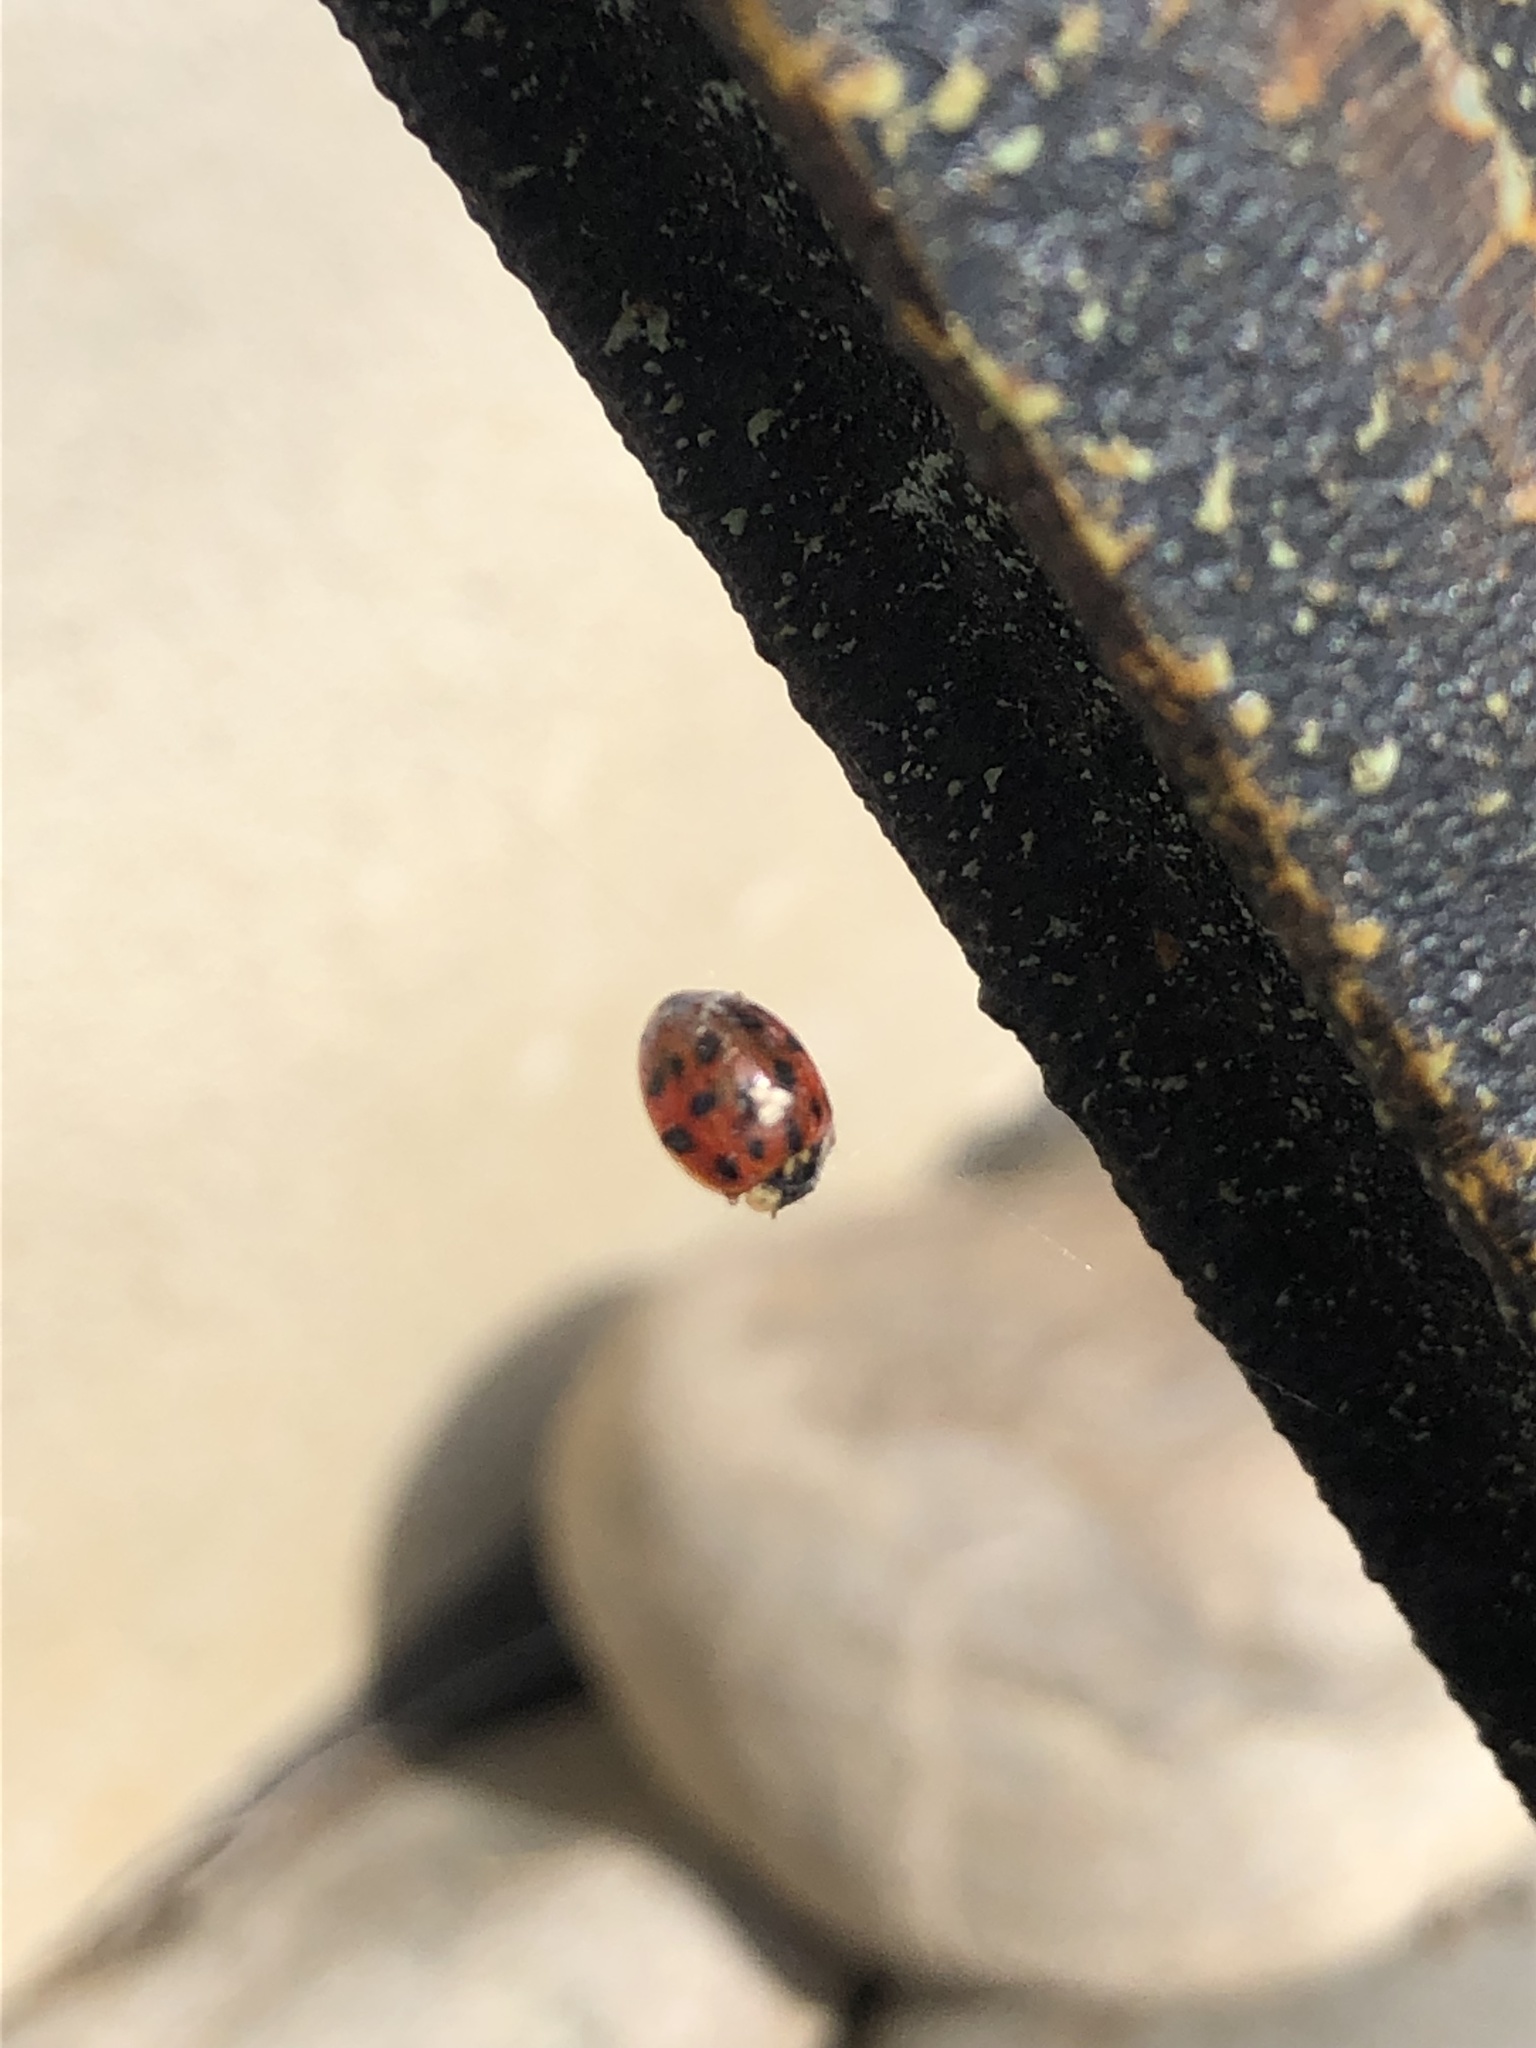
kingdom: Animalia
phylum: Arthropoda
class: Insecta
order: Coleoptera
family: Coccinellidae
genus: Harmonia
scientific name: Harmonia axyridis
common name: Harlequin ladybird
